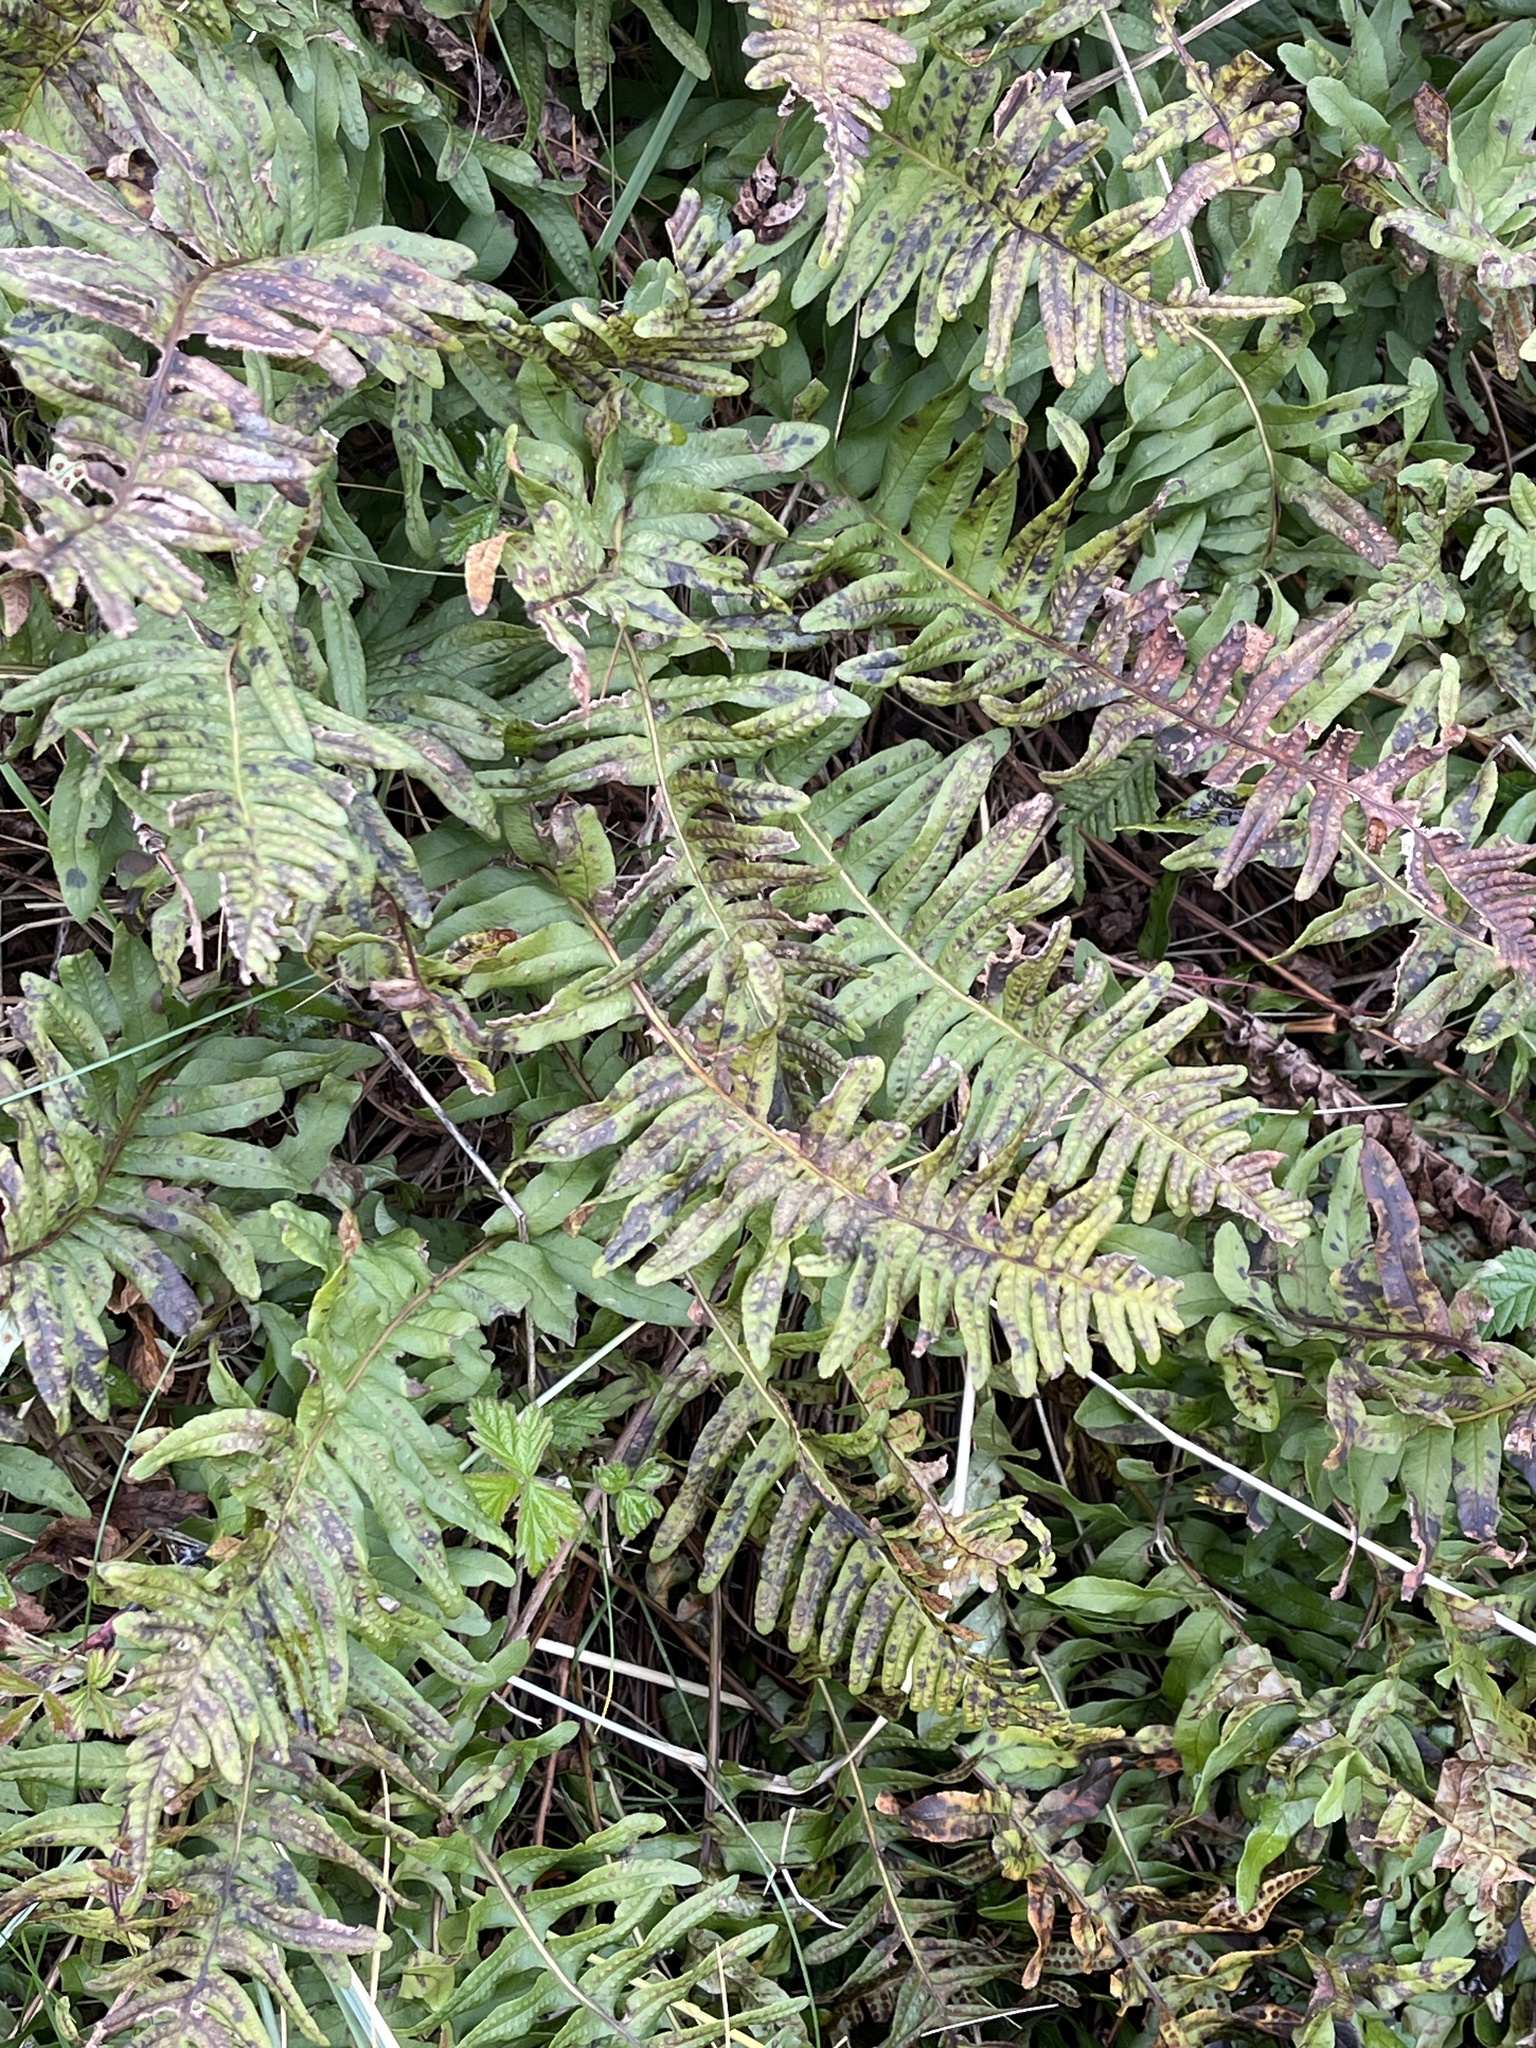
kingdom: Plantae
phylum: Tracheophyta
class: Polypodiopsida
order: Polypodiales
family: Polypodiaceae
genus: Polypodium
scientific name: Polypodium vulgare
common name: Common polypody
